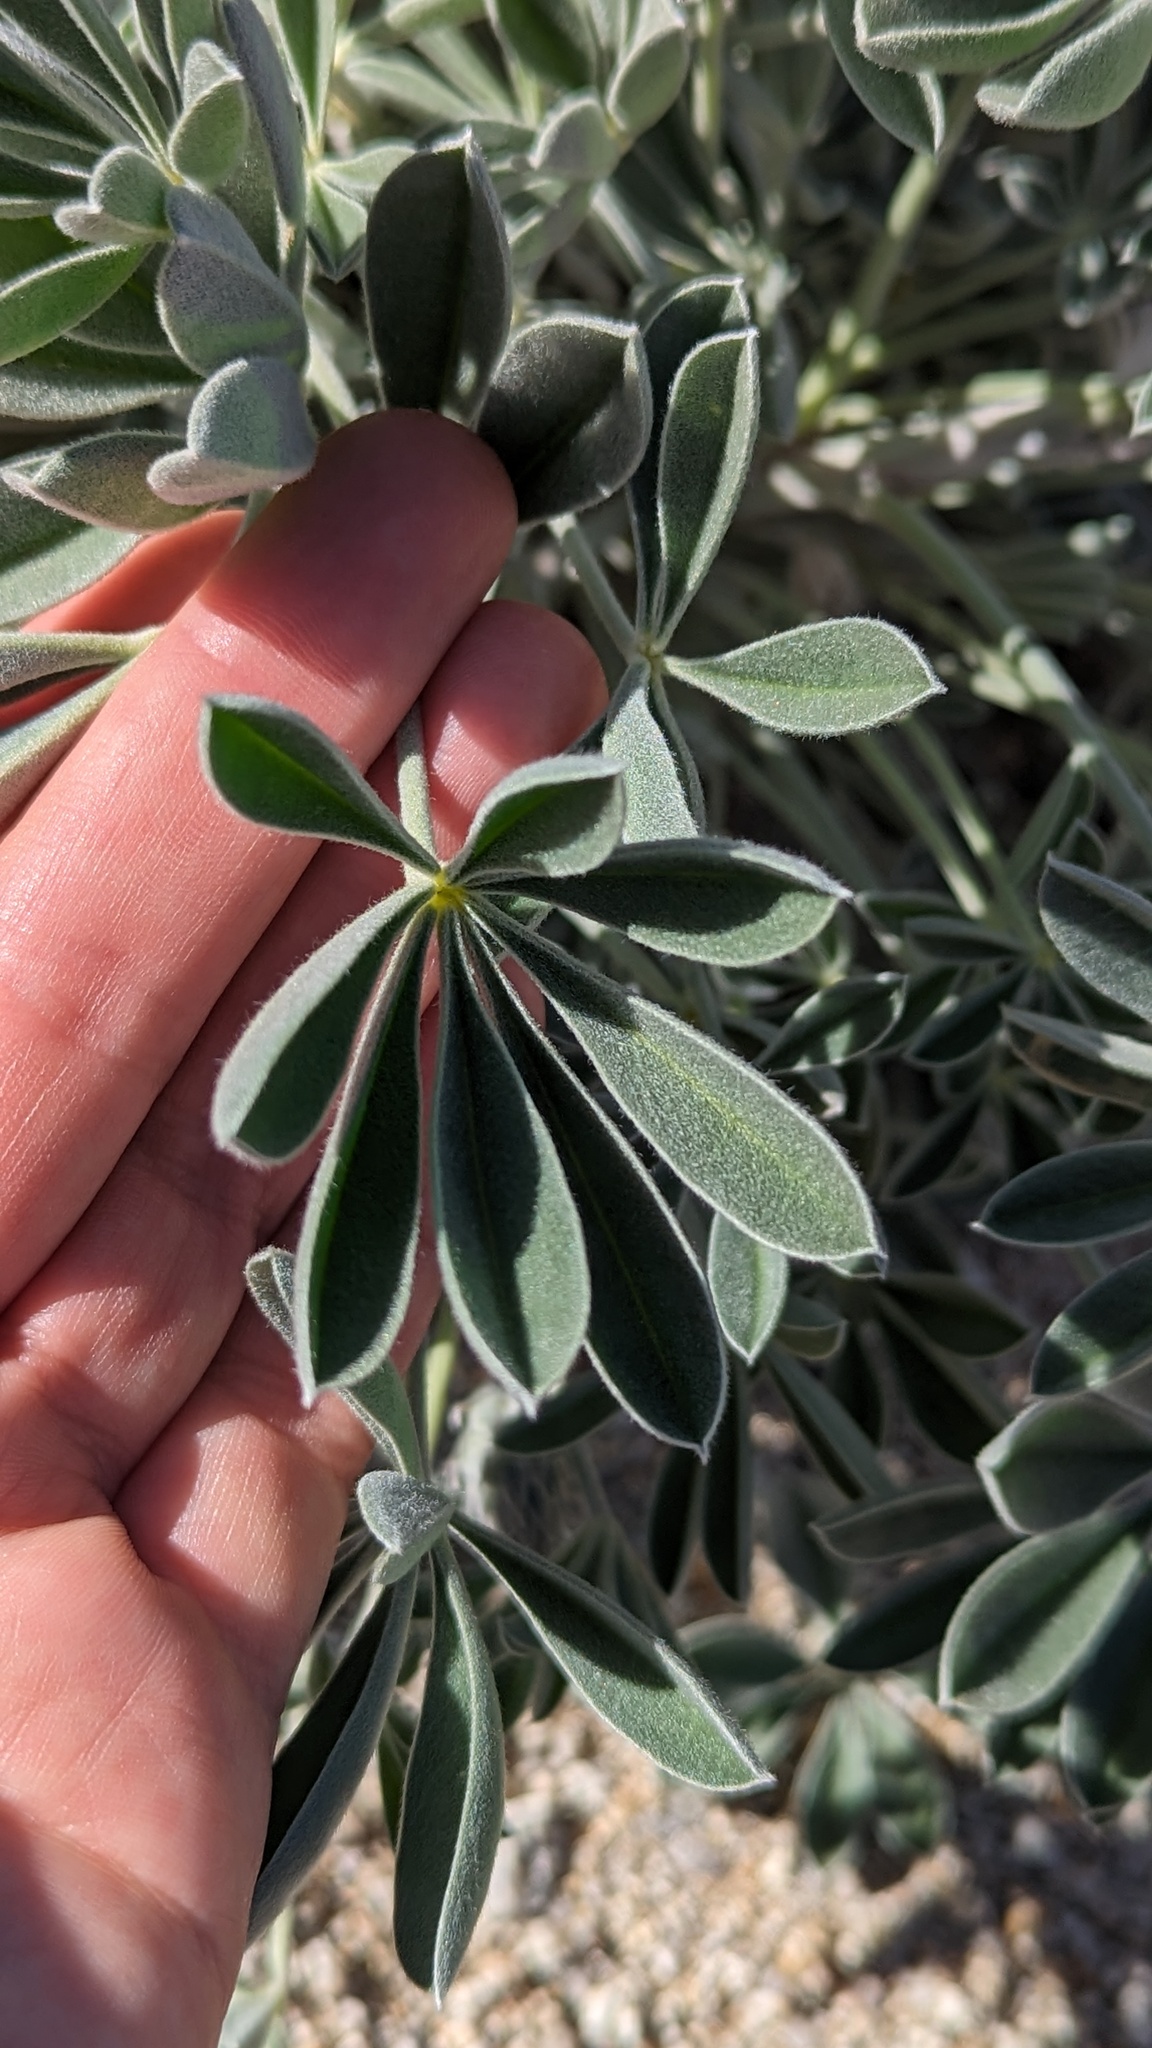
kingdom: Plantae
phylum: Tracheophyta
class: Magnoliopsida
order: Fabales
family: Fabaceae
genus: Lupinus
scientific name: Lupinus excubitus
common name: Grape soda lupine
